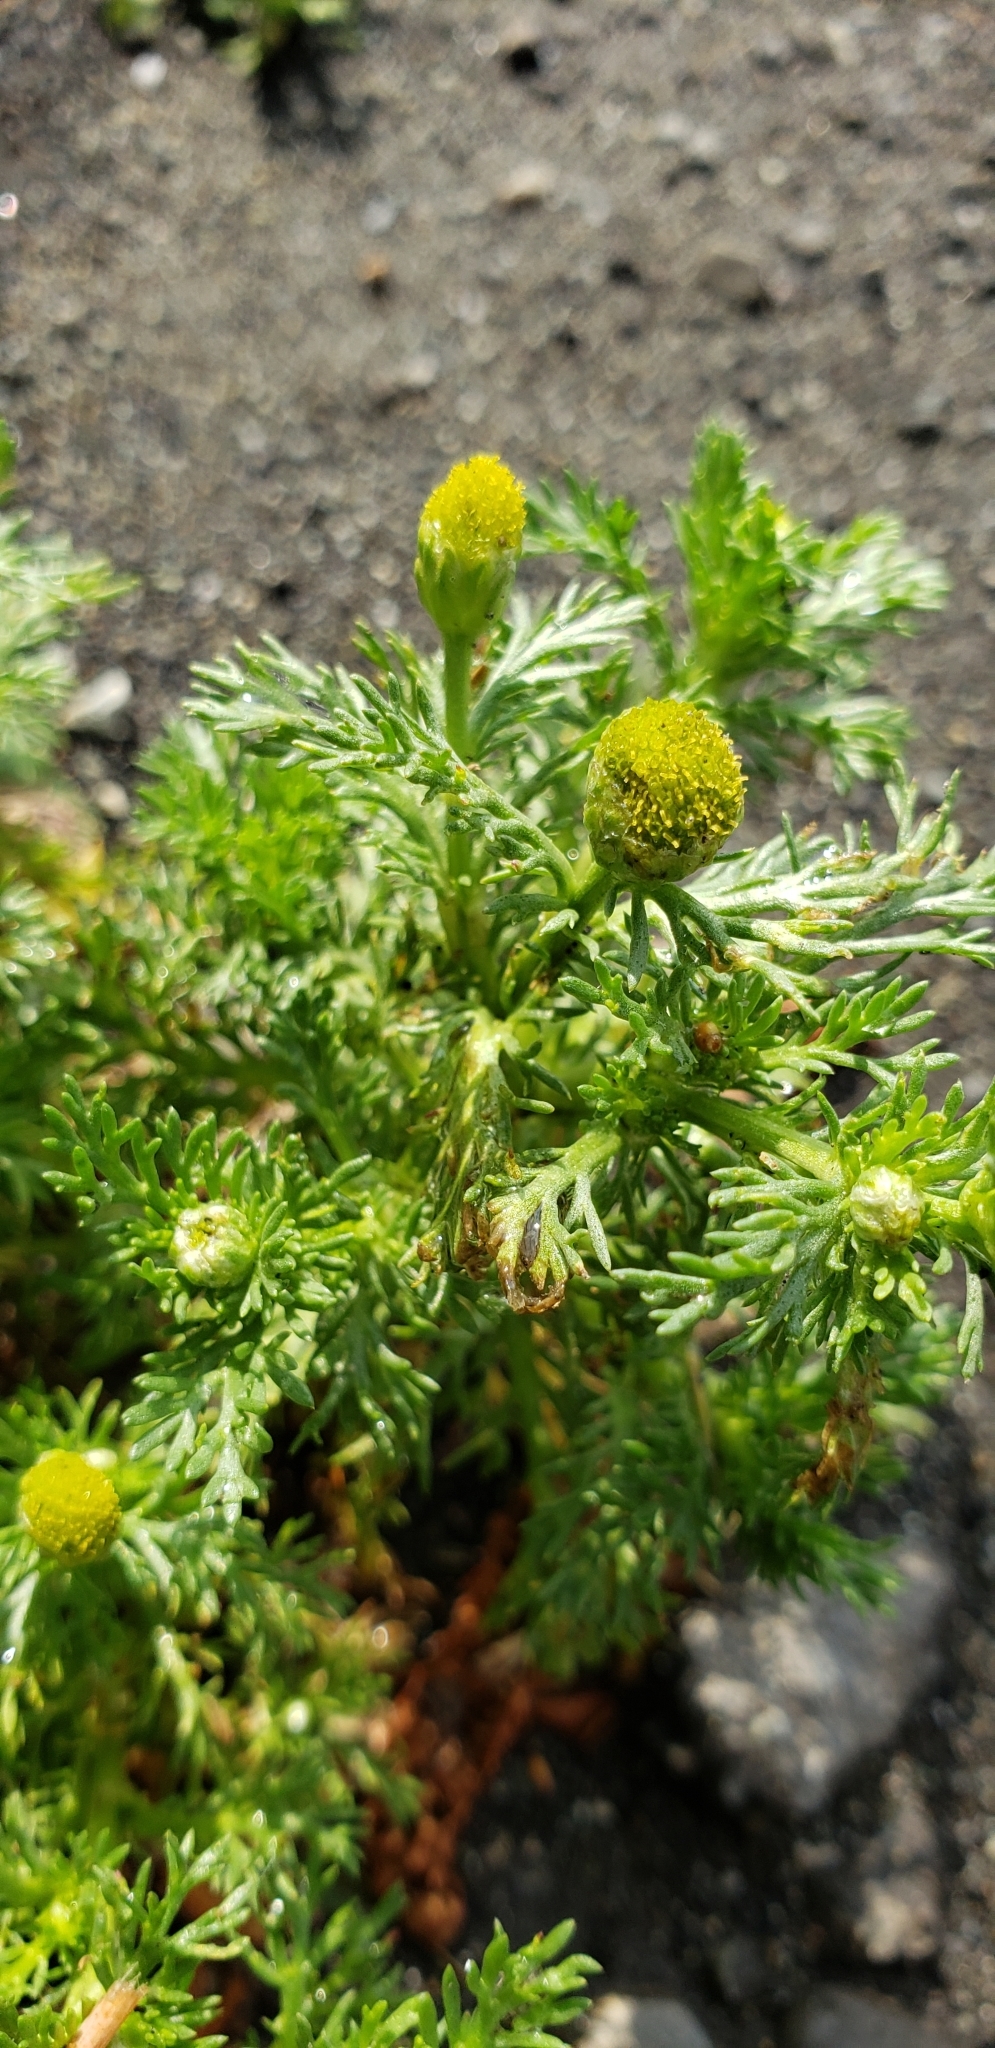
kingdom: Plantae
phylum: Tracheophyta
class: Magnoliopsida
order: Asterales
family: Asteraceae
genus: Matricaria
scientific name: Matricaria discoidea
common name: Disc mayweed
